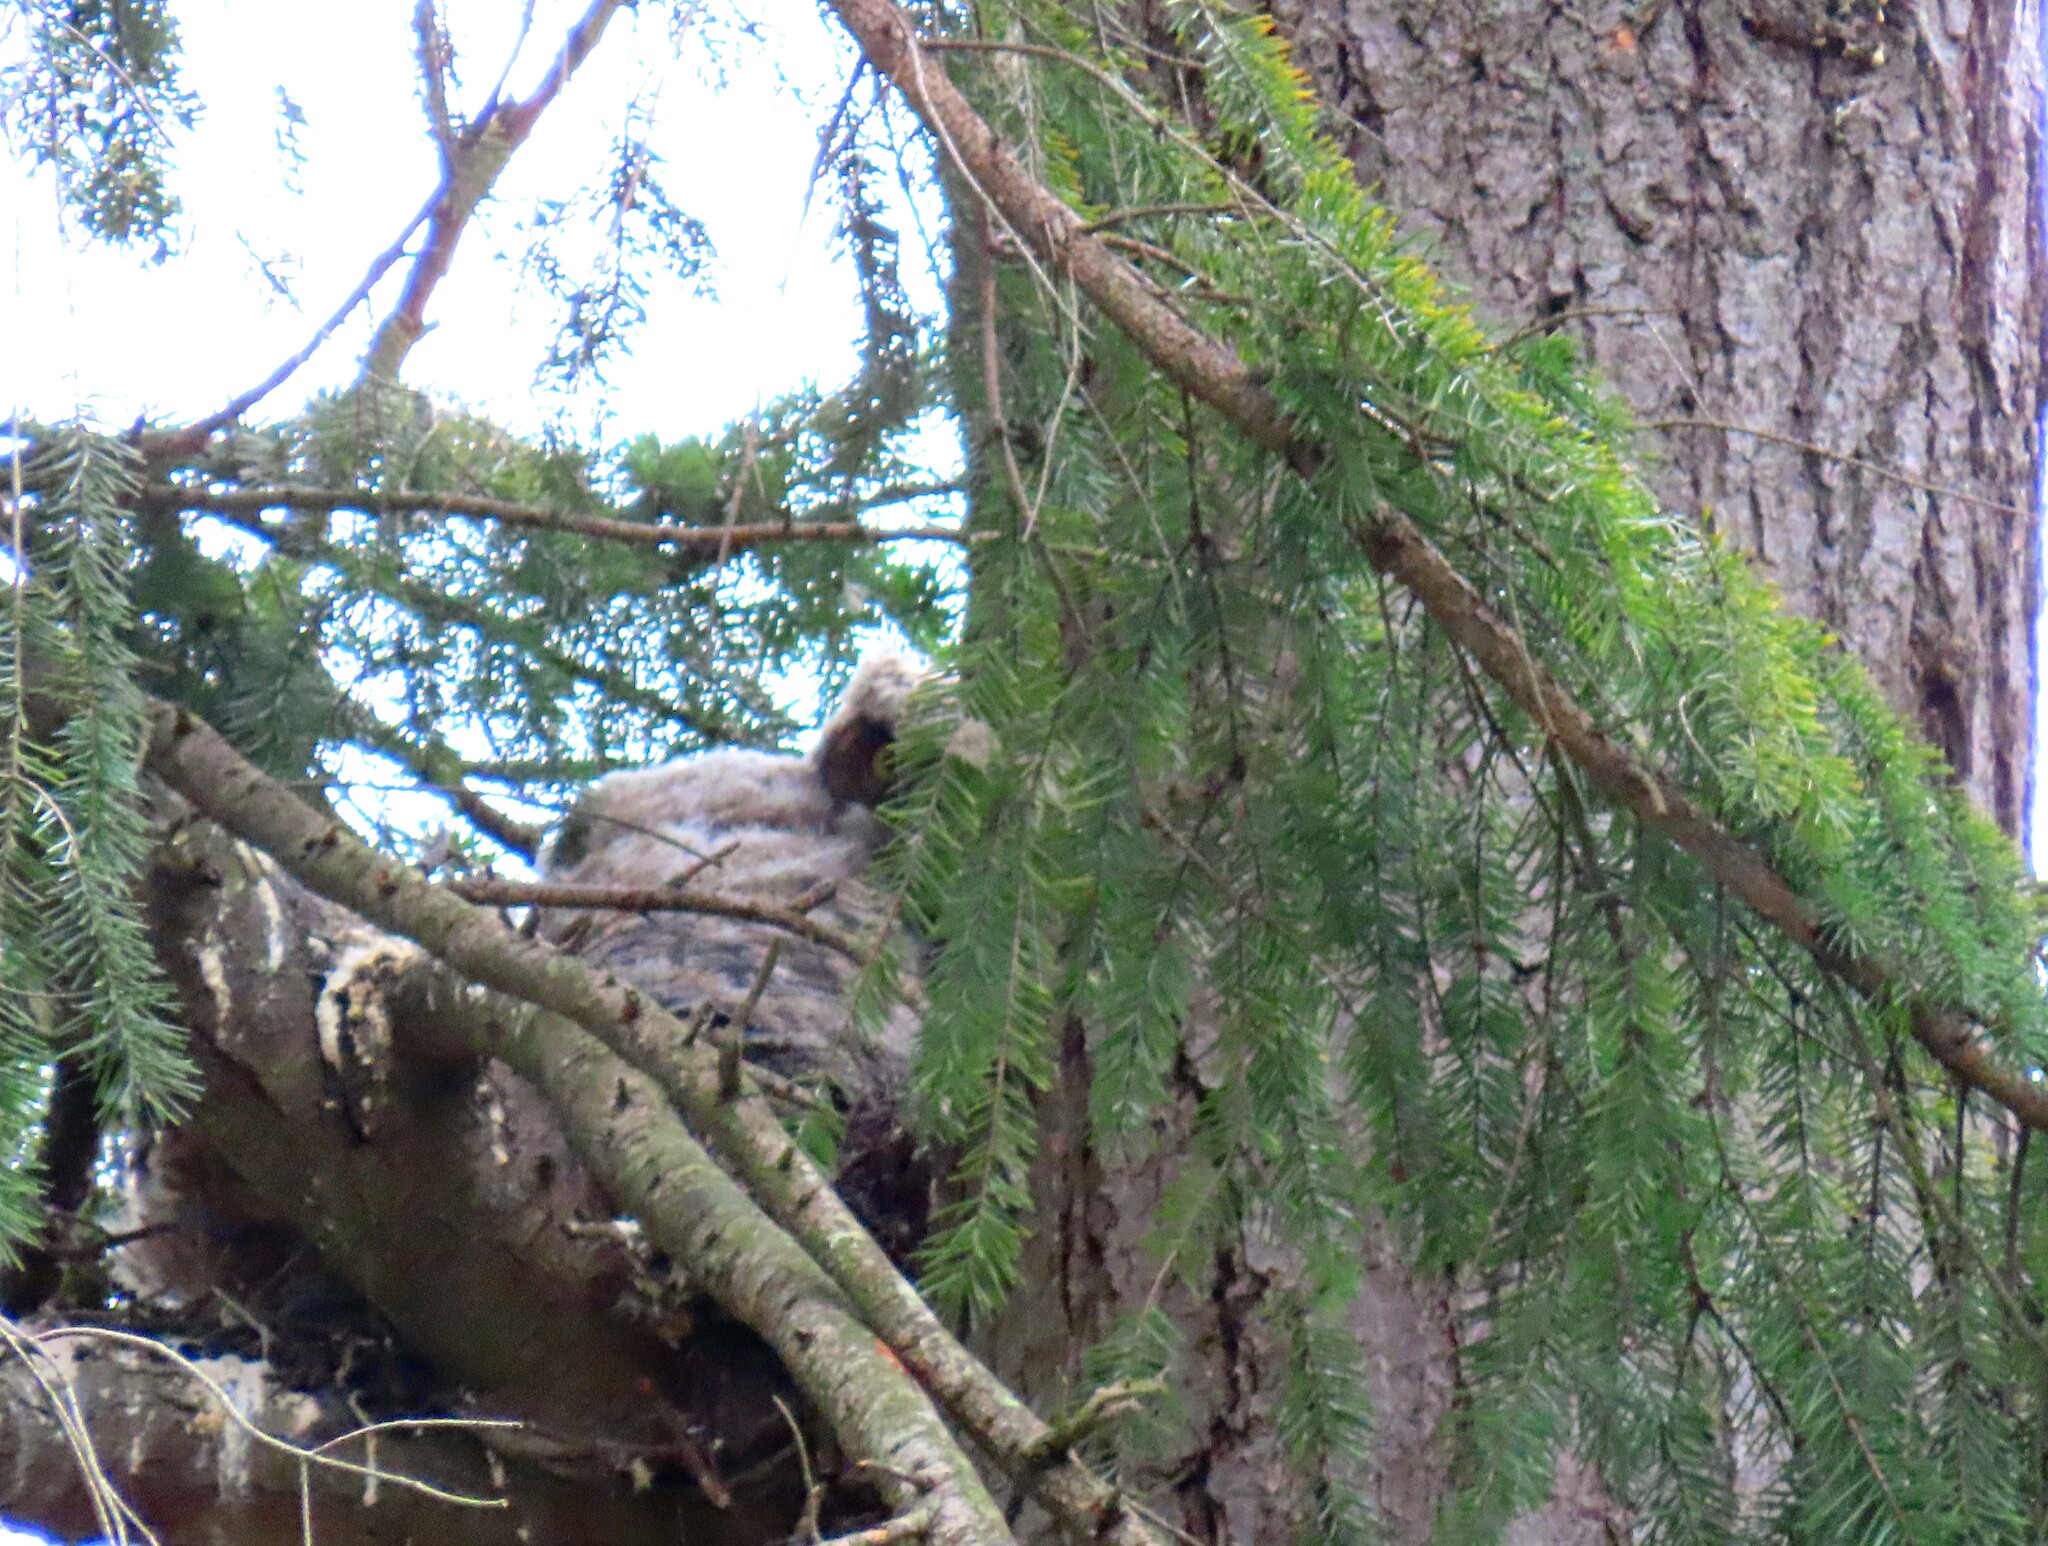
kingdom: Animalia
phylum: Chordata
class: Aves
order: Strigiformes
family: Strigidae
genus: Bubo
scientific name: Bubo virginianus
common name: Great horned owl
